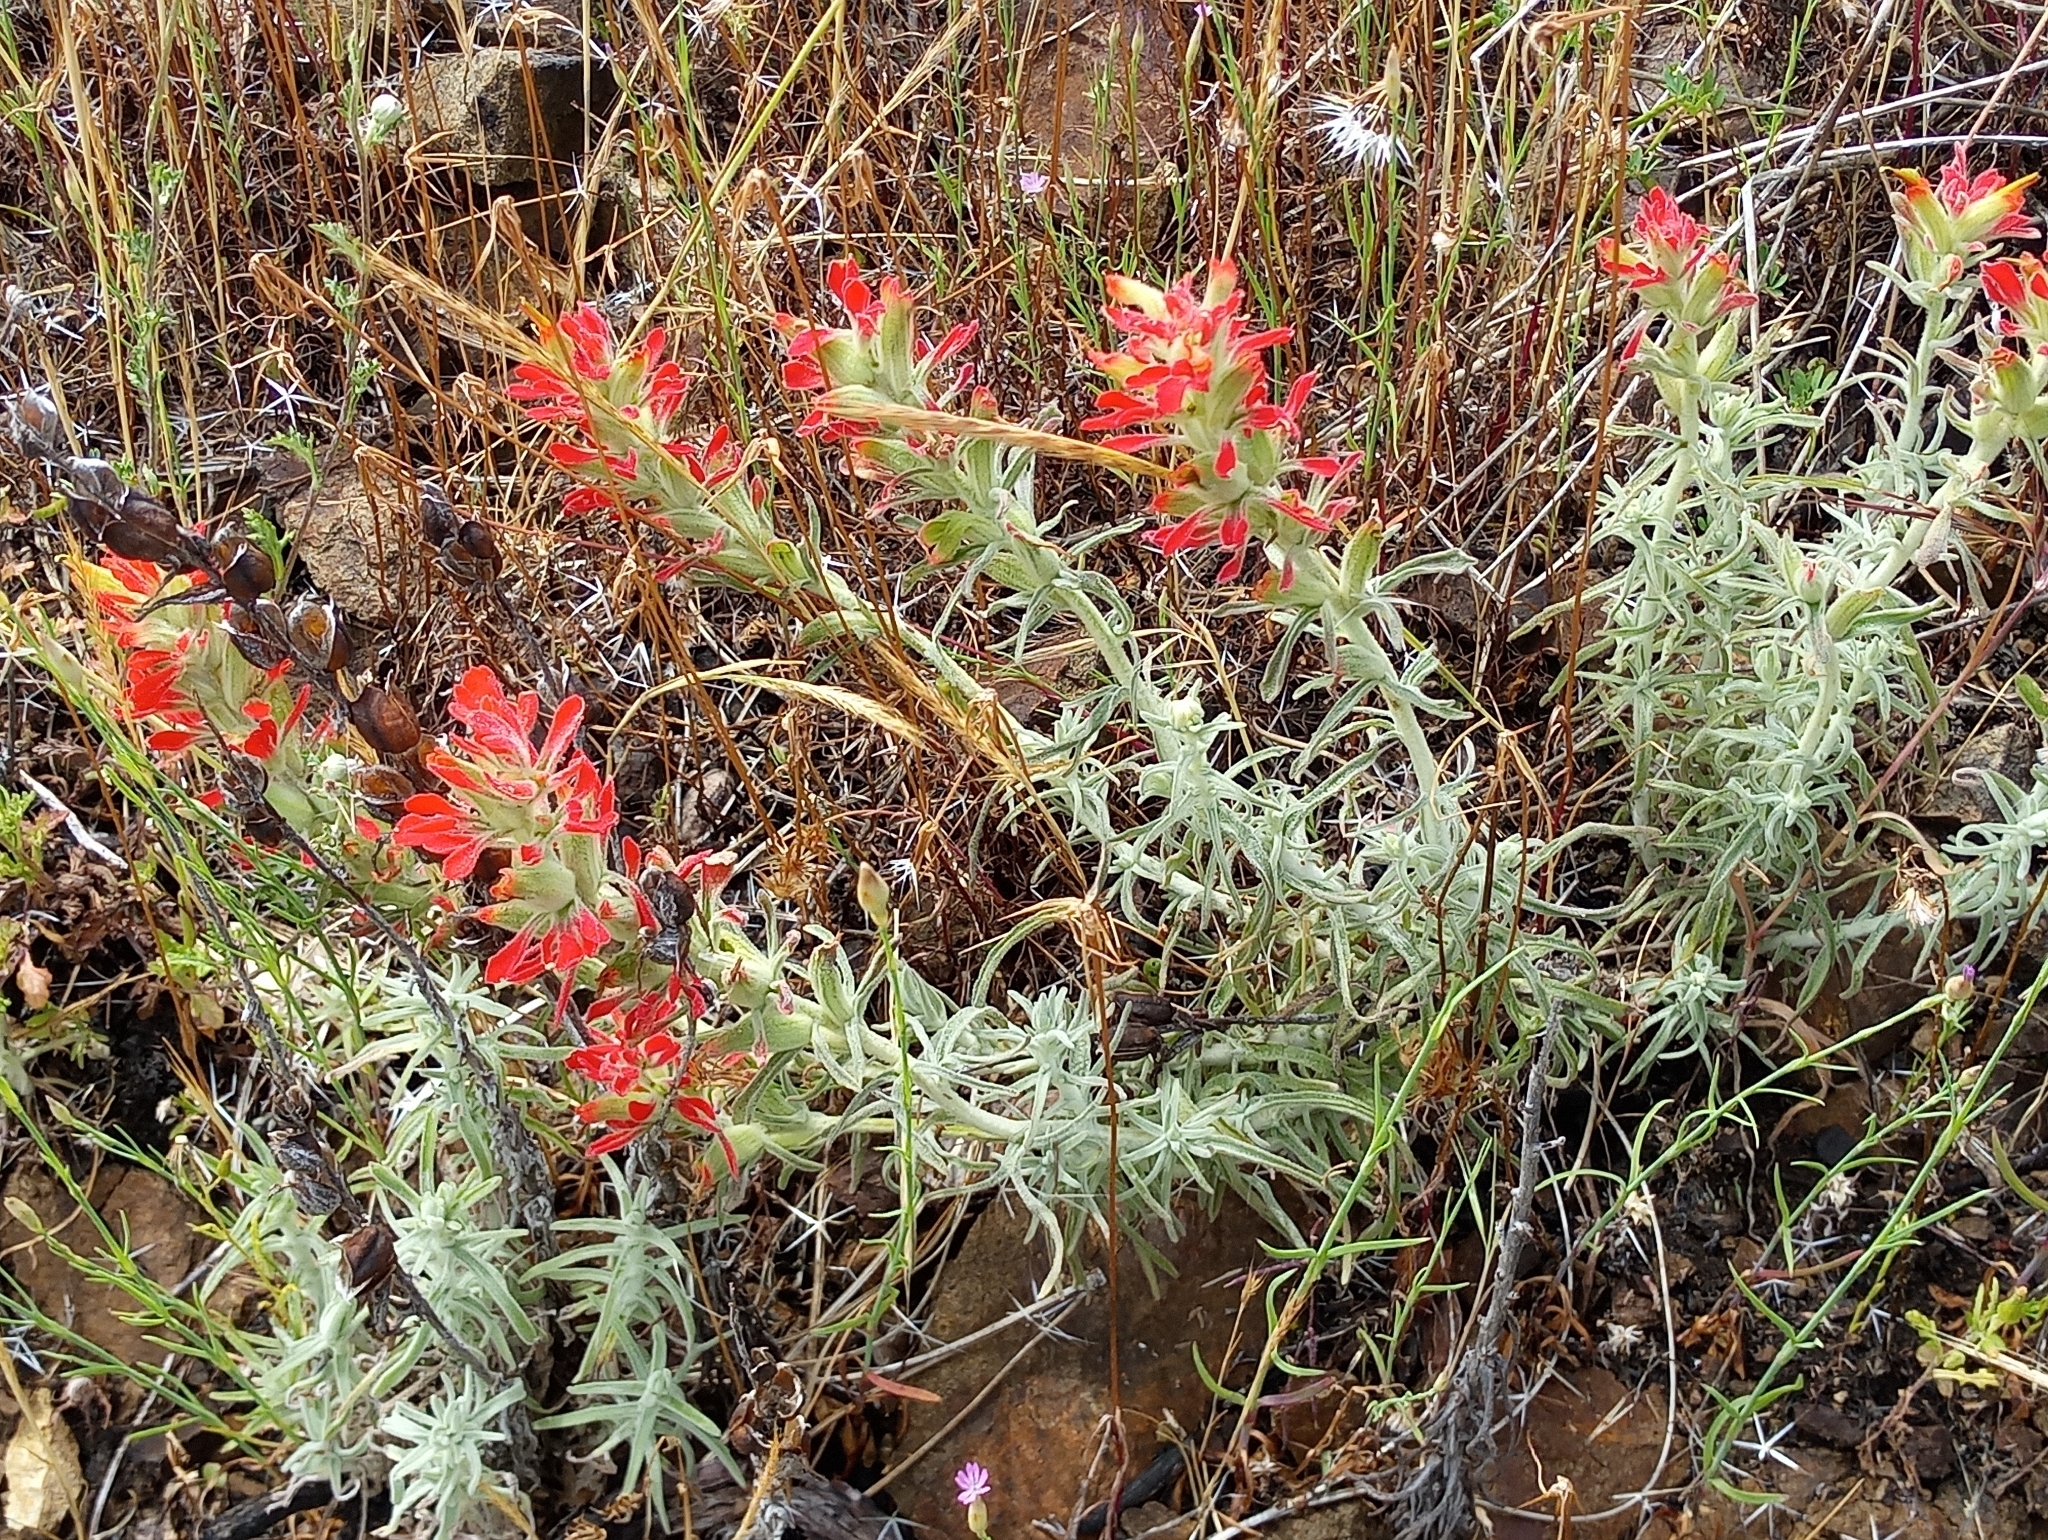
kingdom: Plantae
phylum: Tracheophyta
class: Magnoliopsida
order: Lamiales
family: Orobanchaceae
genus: Castilleja
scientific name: Castilleja foliolosa
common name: Woolly indian paintbrush
